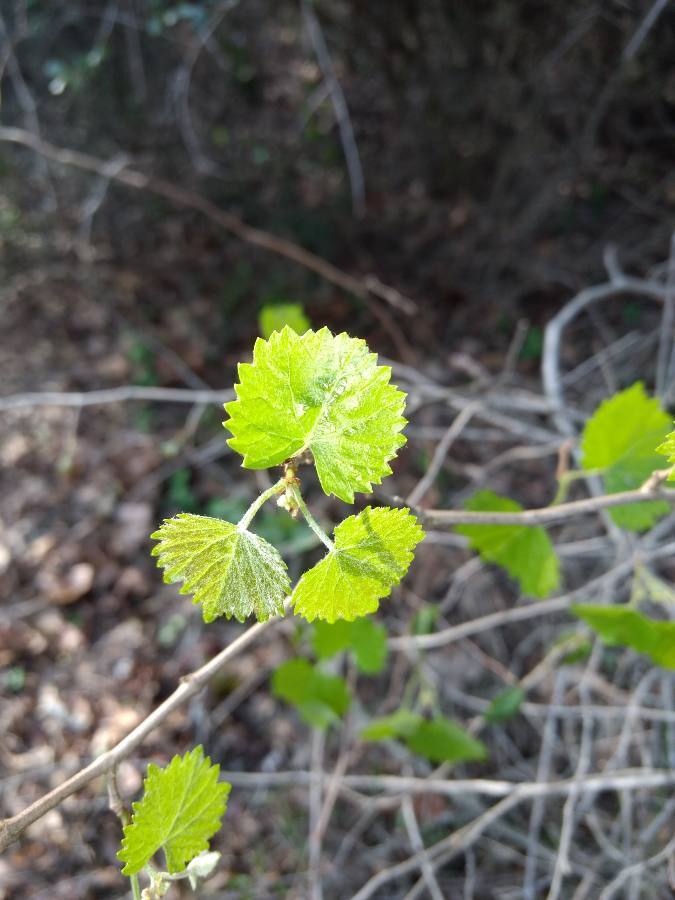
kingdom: Plantae
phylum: Tracheophyta
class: Magnoliopsida
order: Vitales
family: Vitaceae
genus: Vitis
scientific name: Vitis rotundifolia
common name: Muscadine grape
